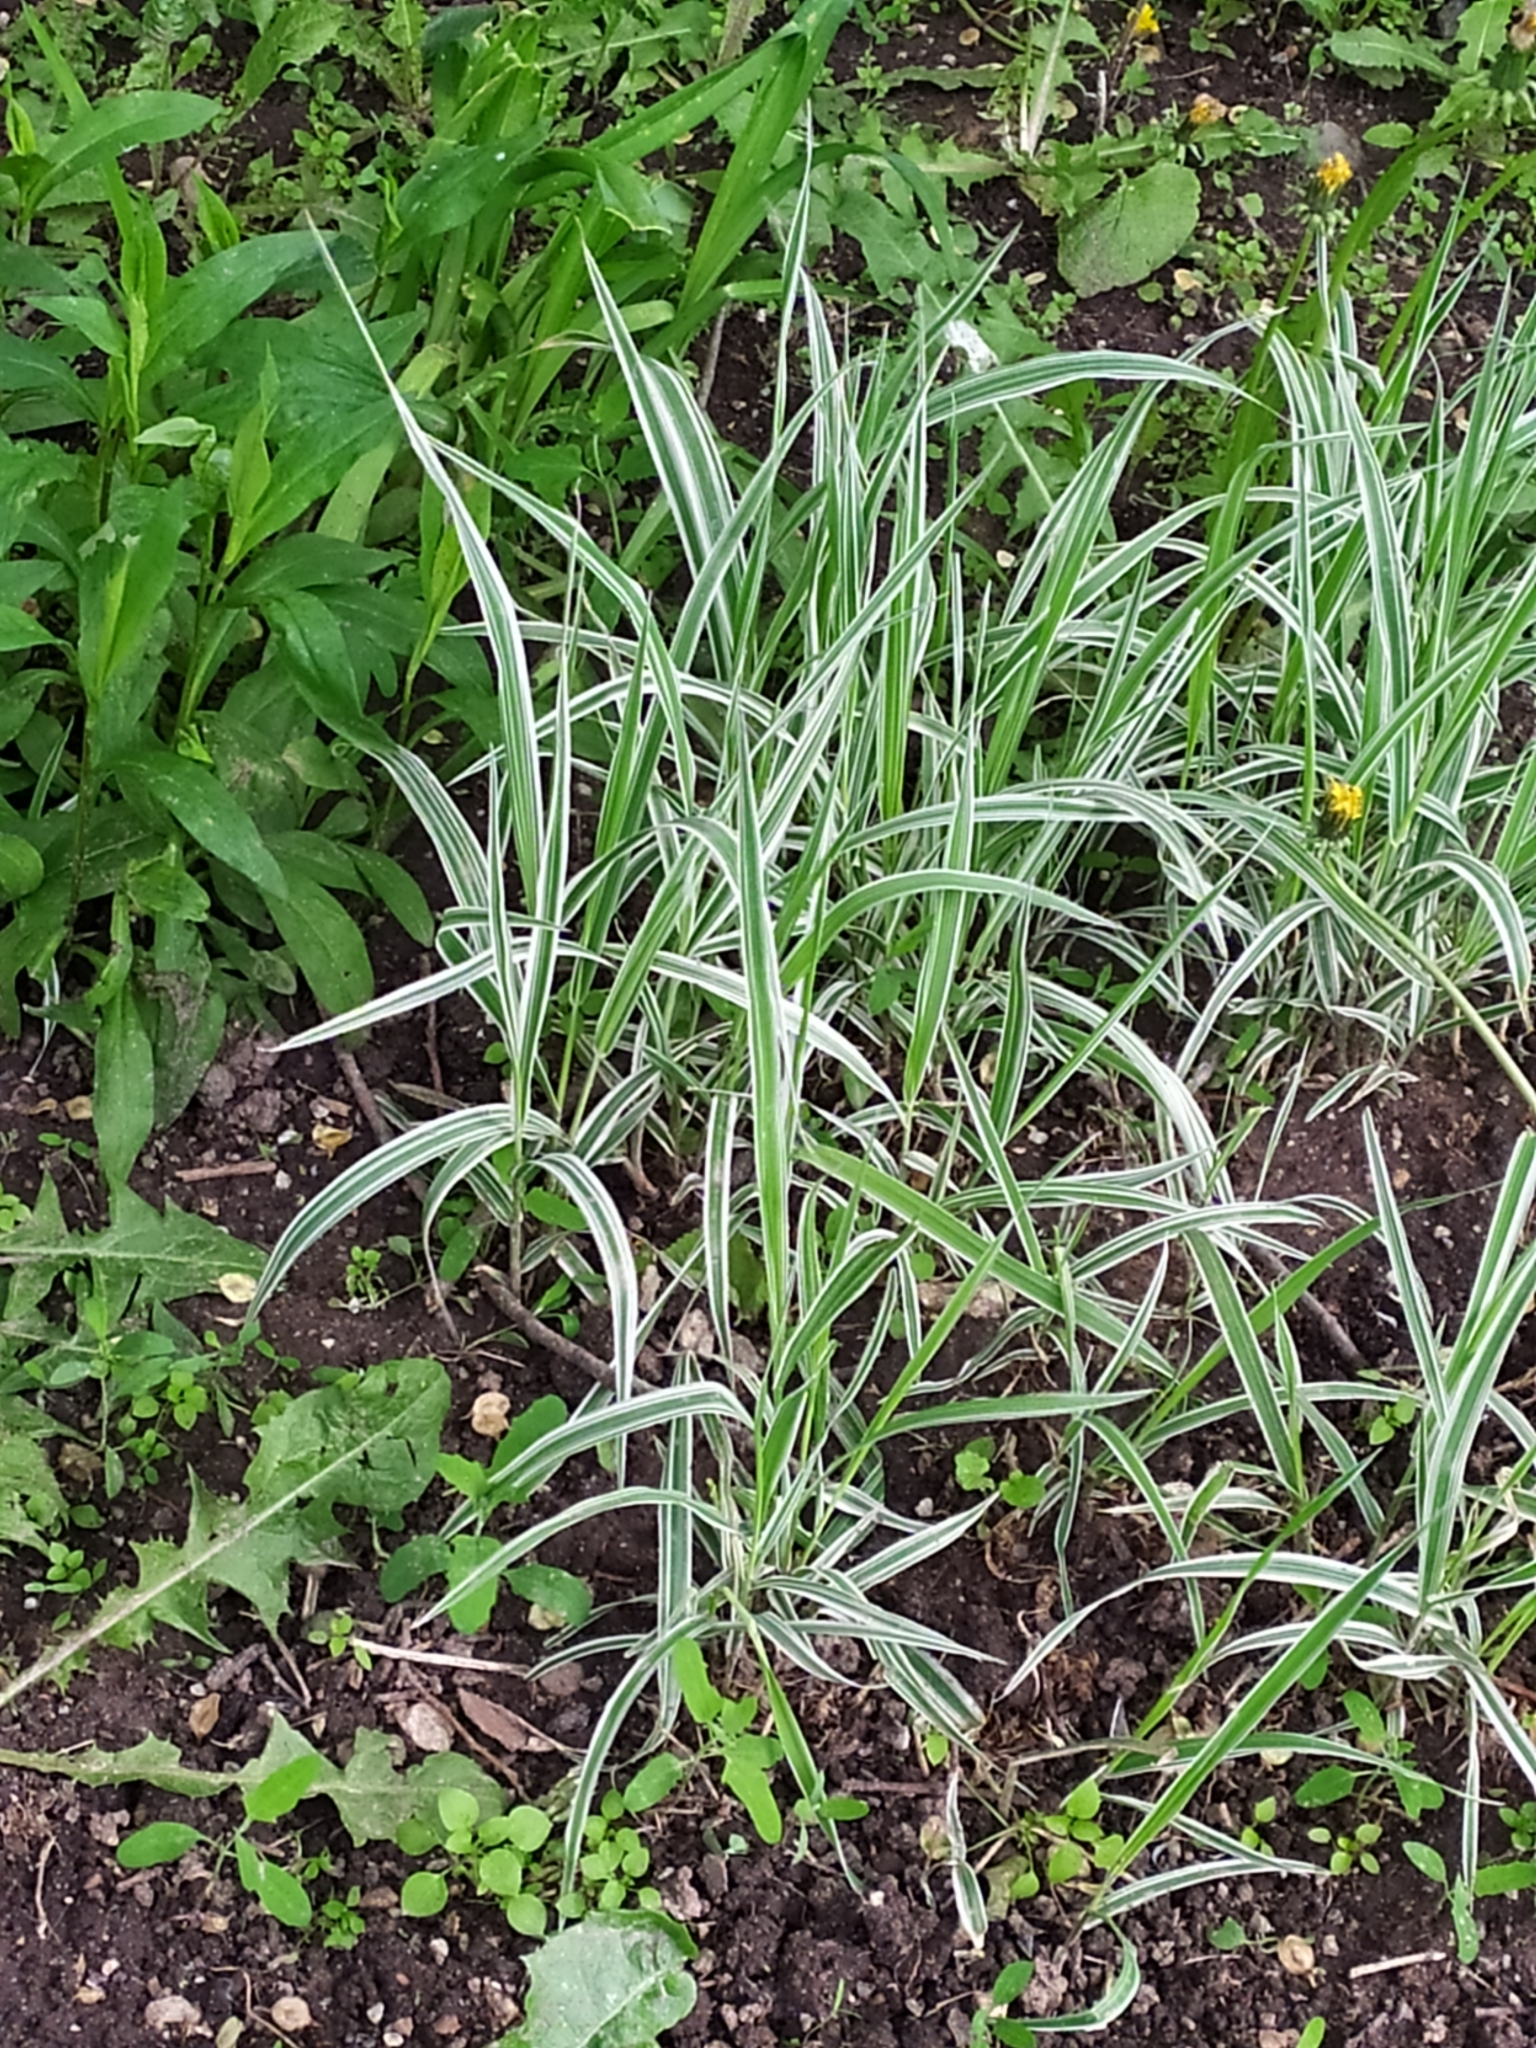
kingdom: Plantae
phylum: Tracheophyta
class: Liliopsida
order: Poales
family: Poaceae
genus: Phalaris
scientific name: Phalaris arundinacea
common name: Reed canary-grass
